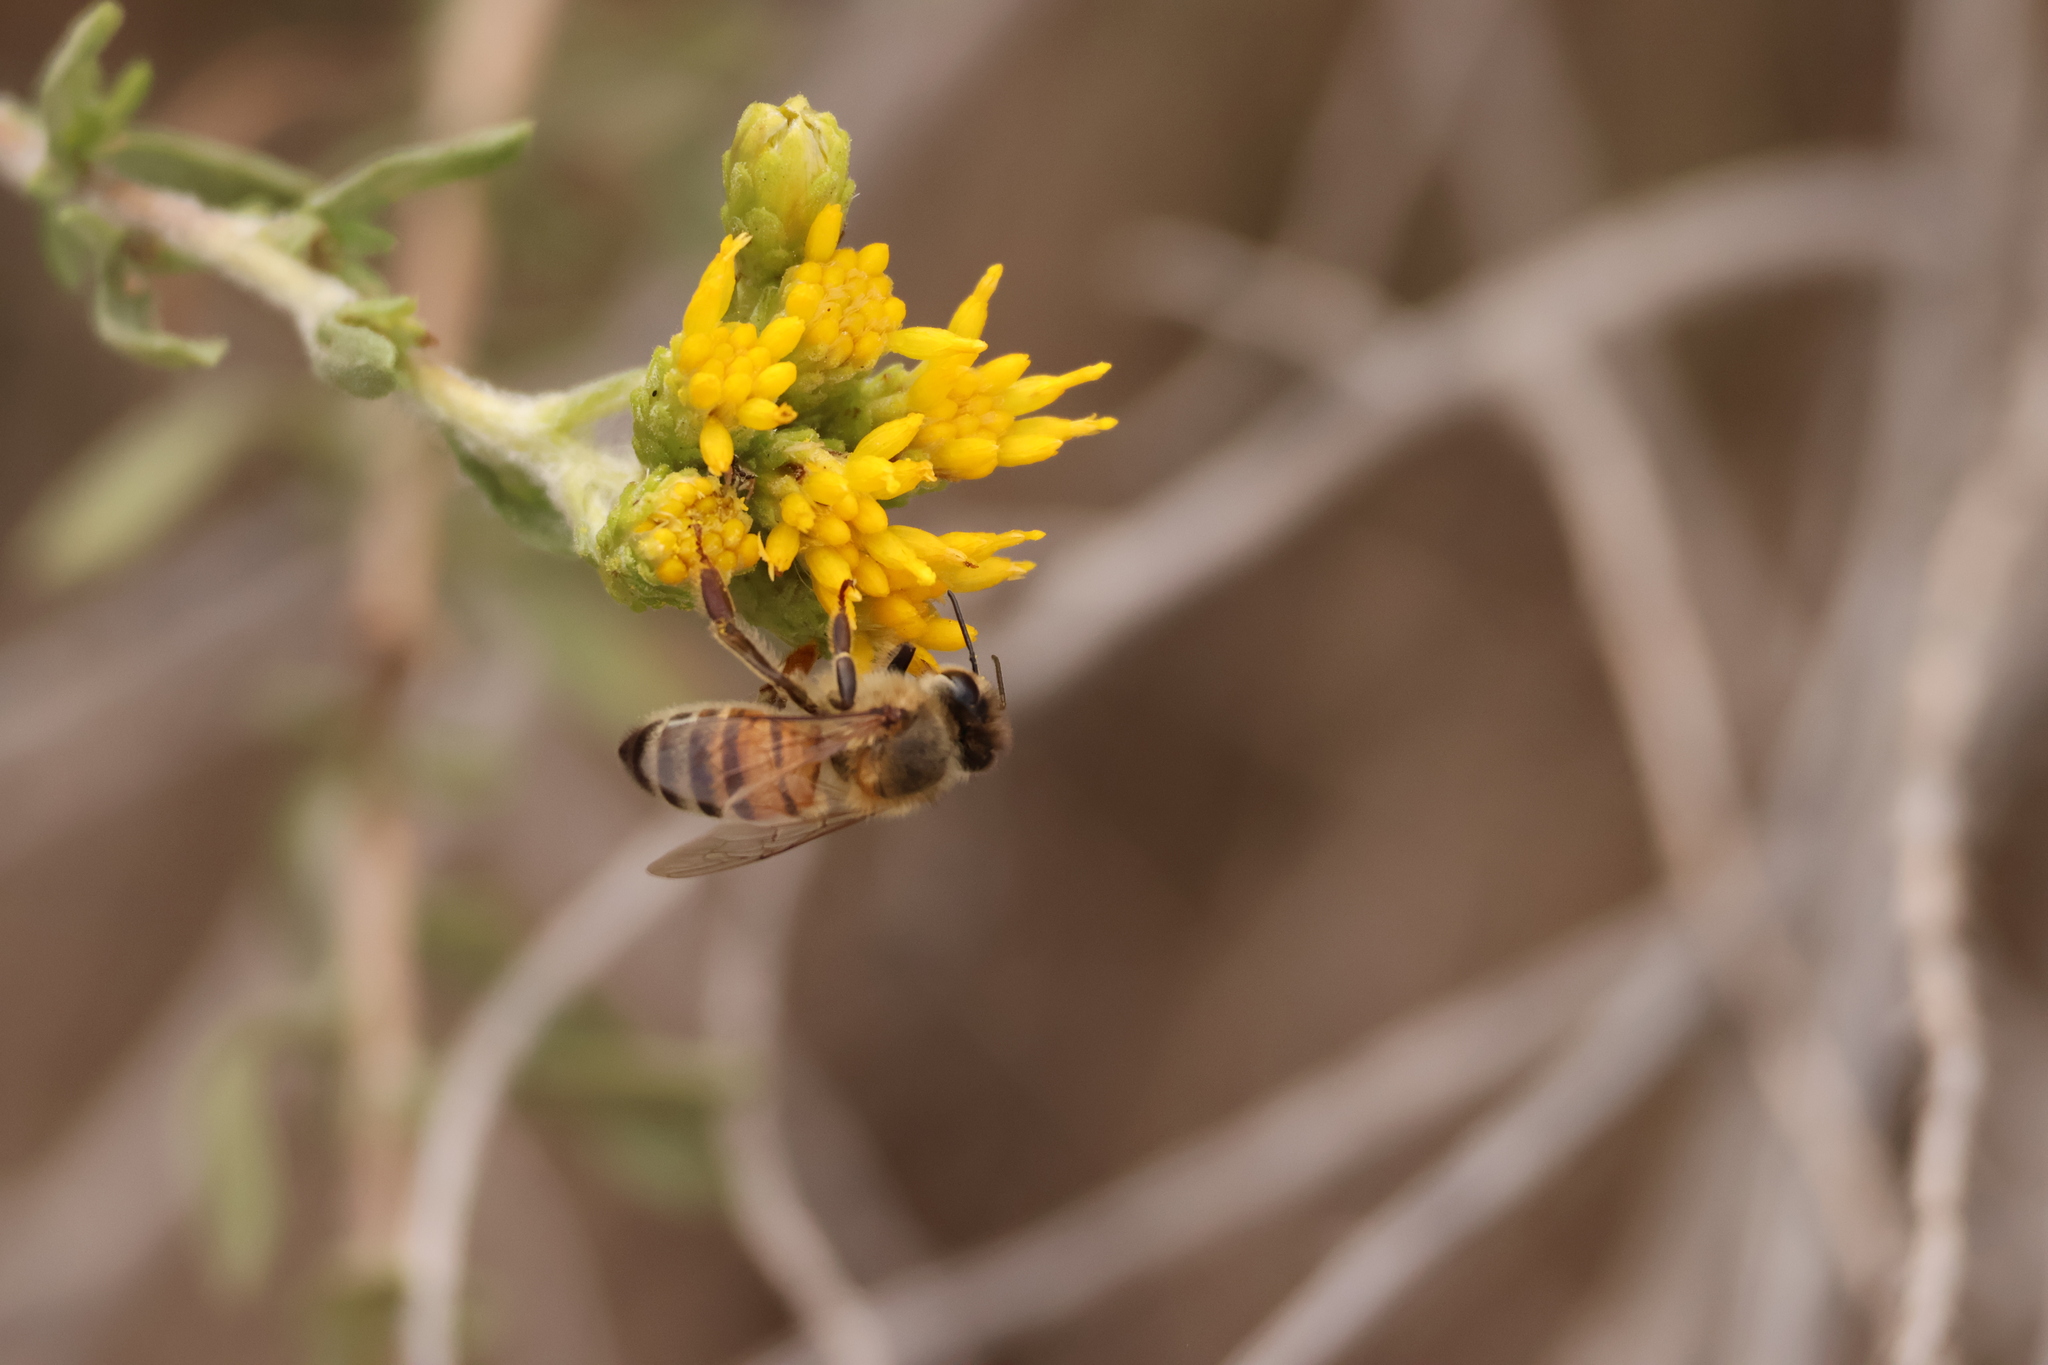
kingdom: Animalia
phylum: Arthropoda
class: Insecta
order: Hymenoptera
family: Apidae
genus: Apis
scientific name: Apis mellifera
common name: Honey bee
